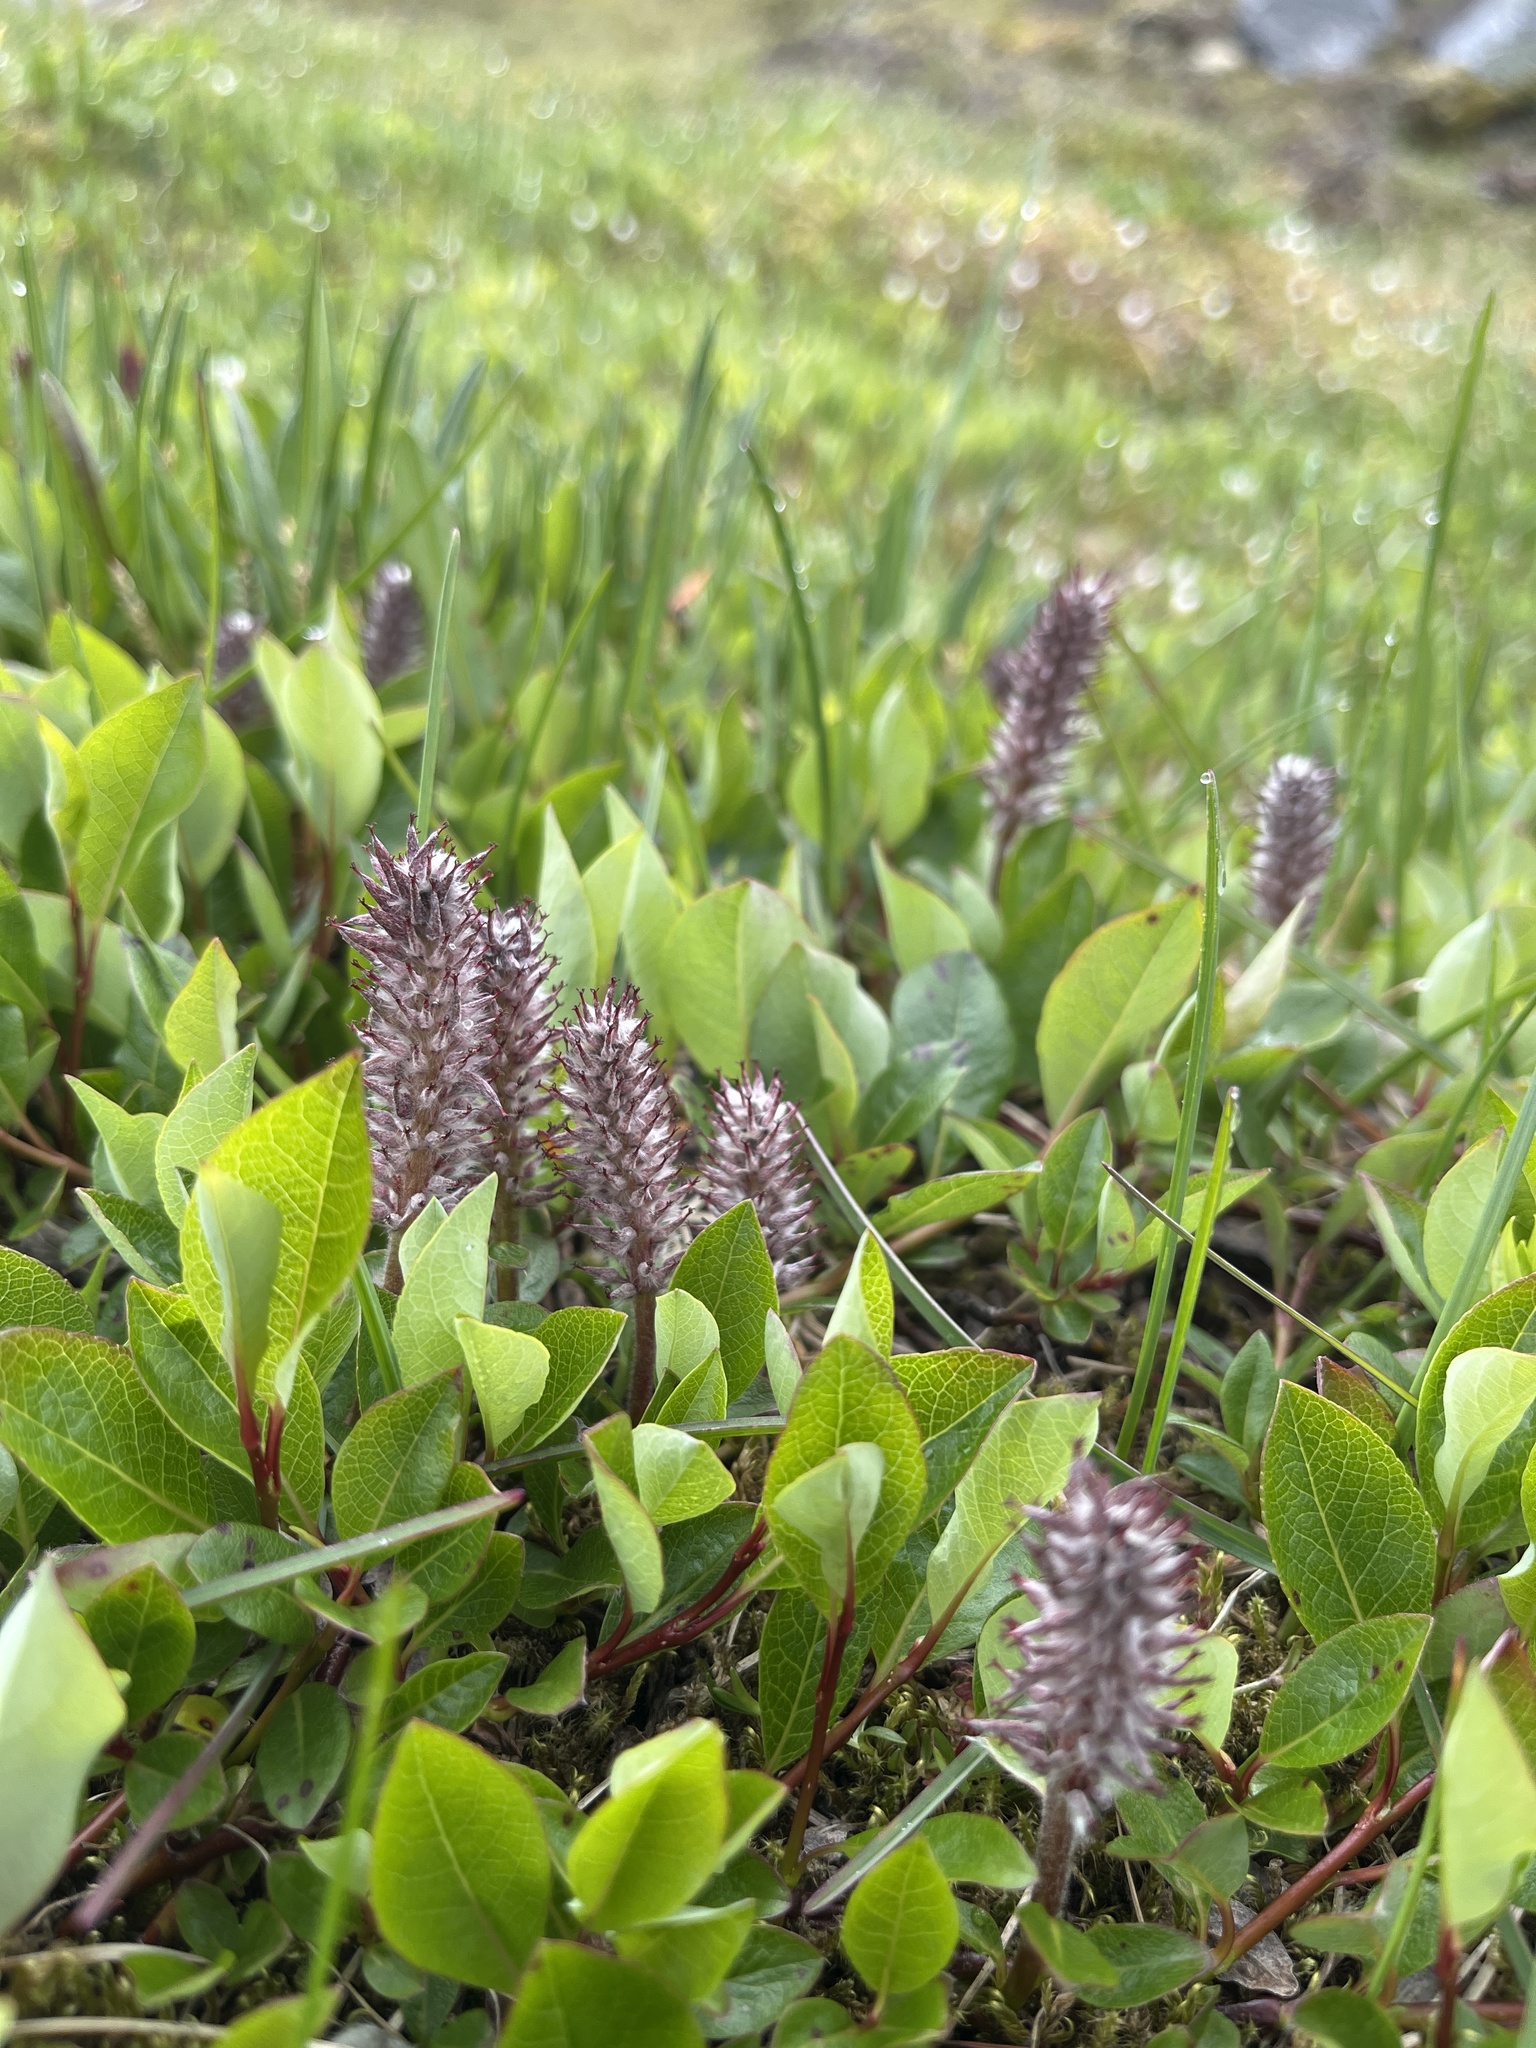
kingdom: Plantae
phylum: Tracheophyta
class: Magnoliopsida
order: Malpighiales
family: Salicaceae
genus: Salix
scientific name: Salix arctophila
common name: Greenland willow
